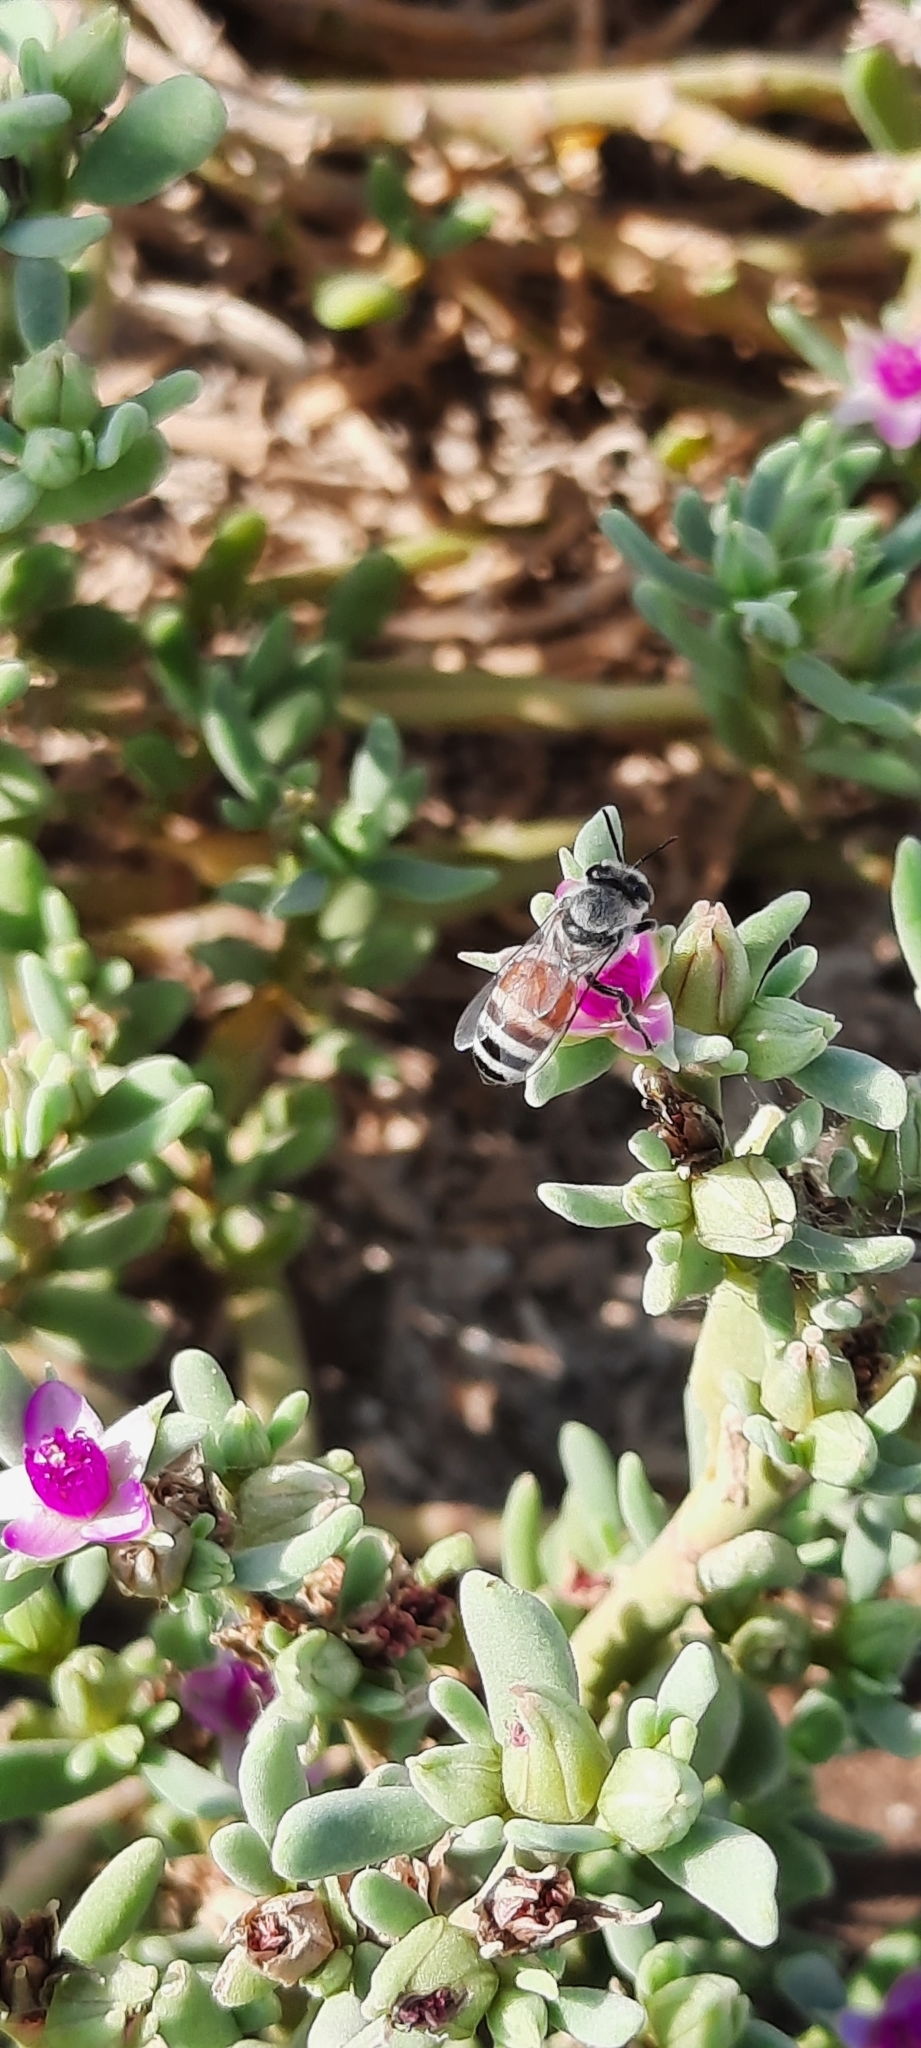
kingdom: Animalia
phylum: Arthropoda
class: Insecta
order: Hymenoptera
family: Apidae
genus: Apis
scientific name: Apis florea
